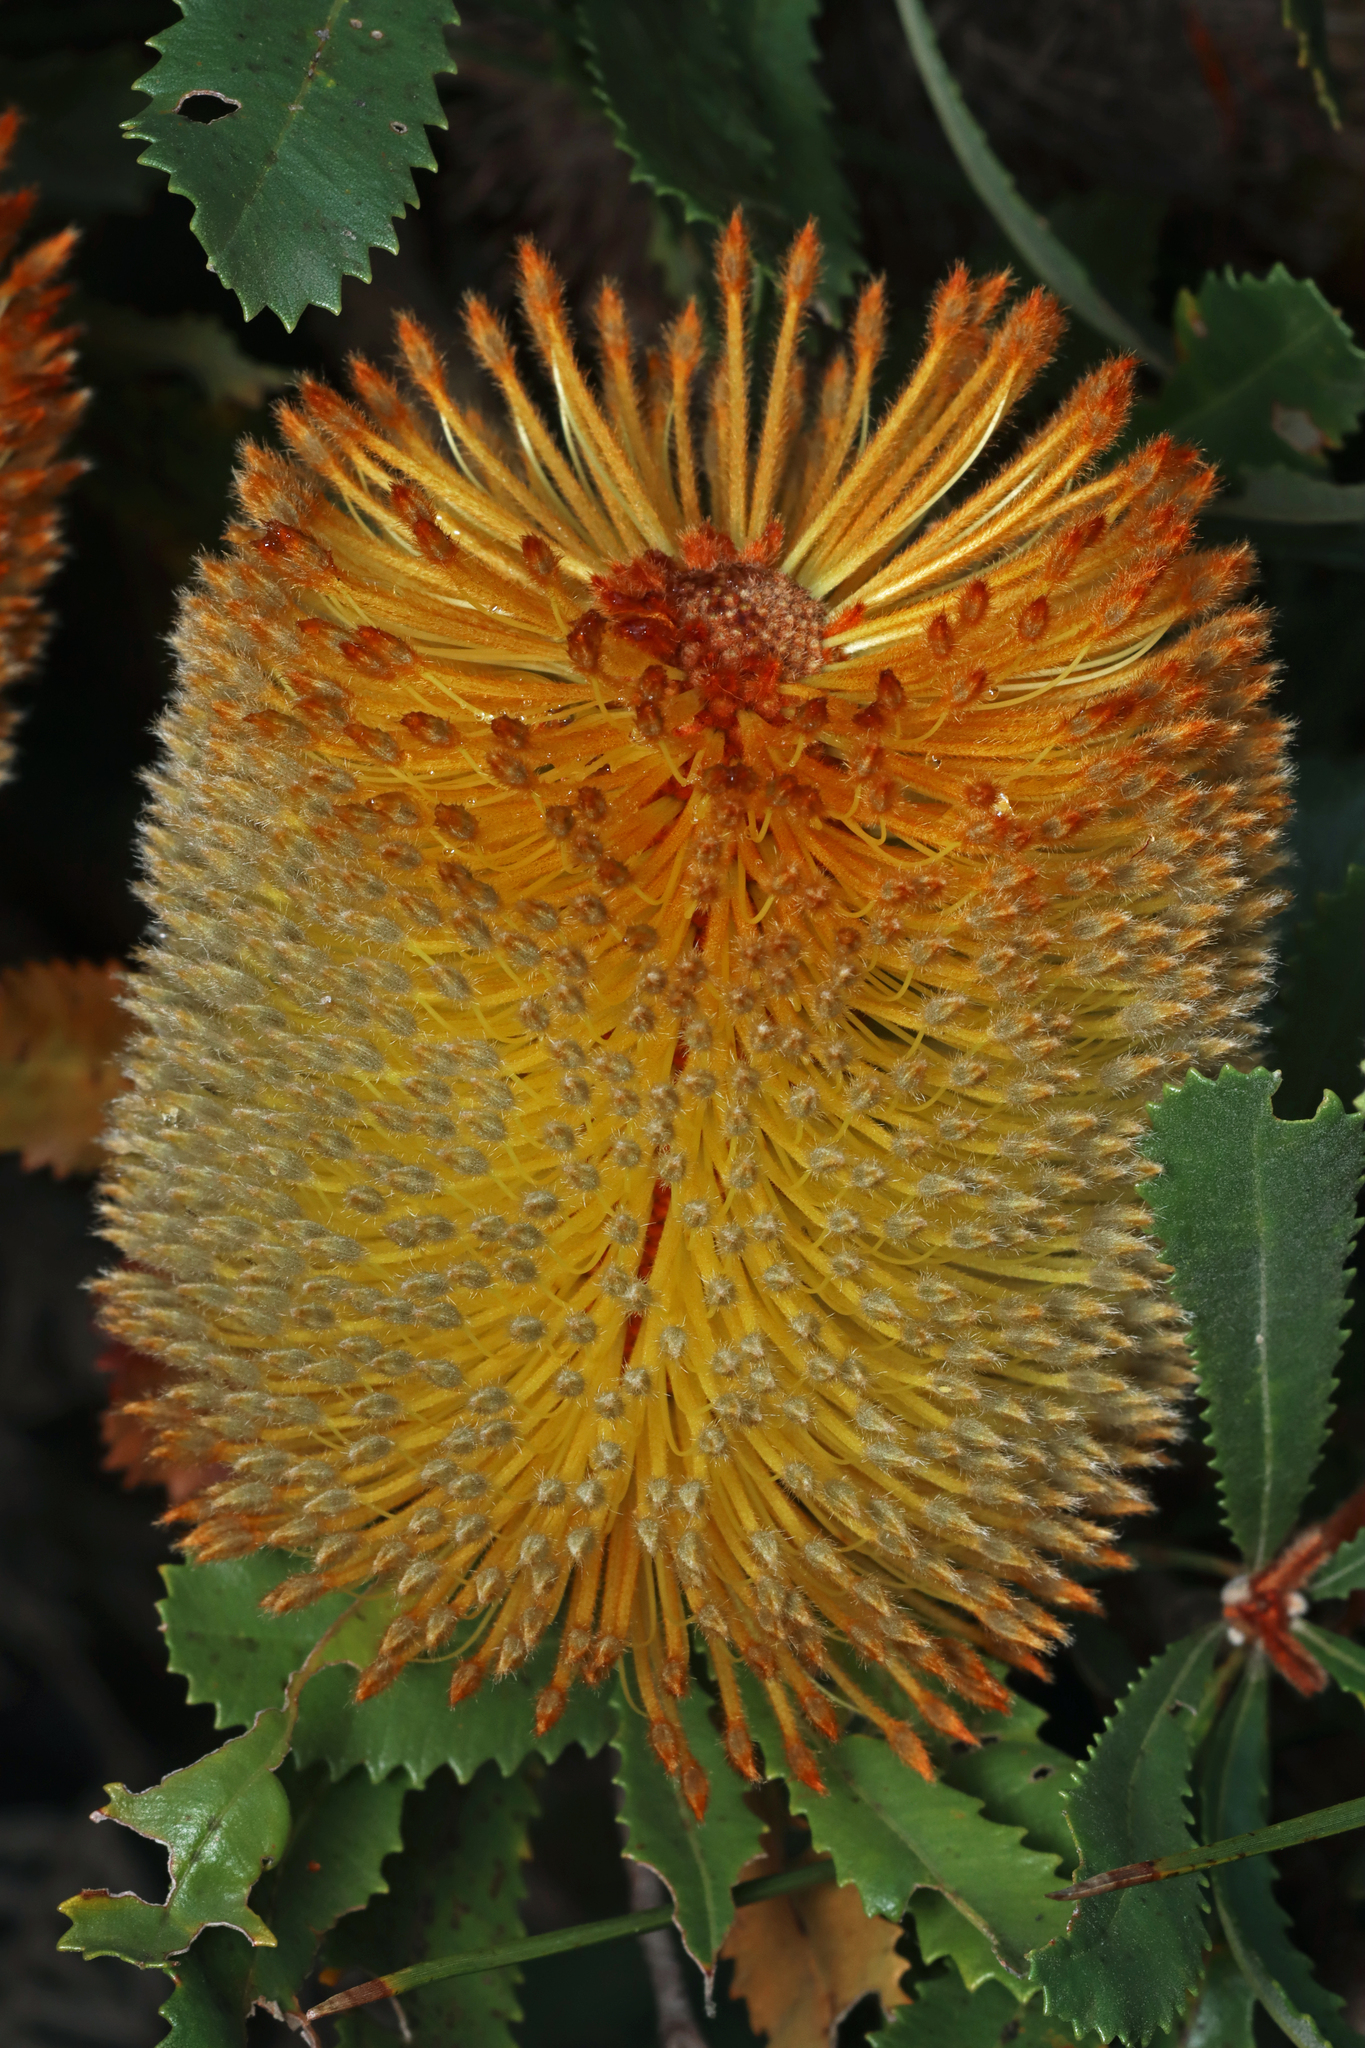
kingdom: Plantae
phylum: Tracheophyta
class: Magnoliopsida
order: Proteales
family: Proteaceae
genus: Banksia
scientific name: Banksia ornata
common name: Desert banksia
